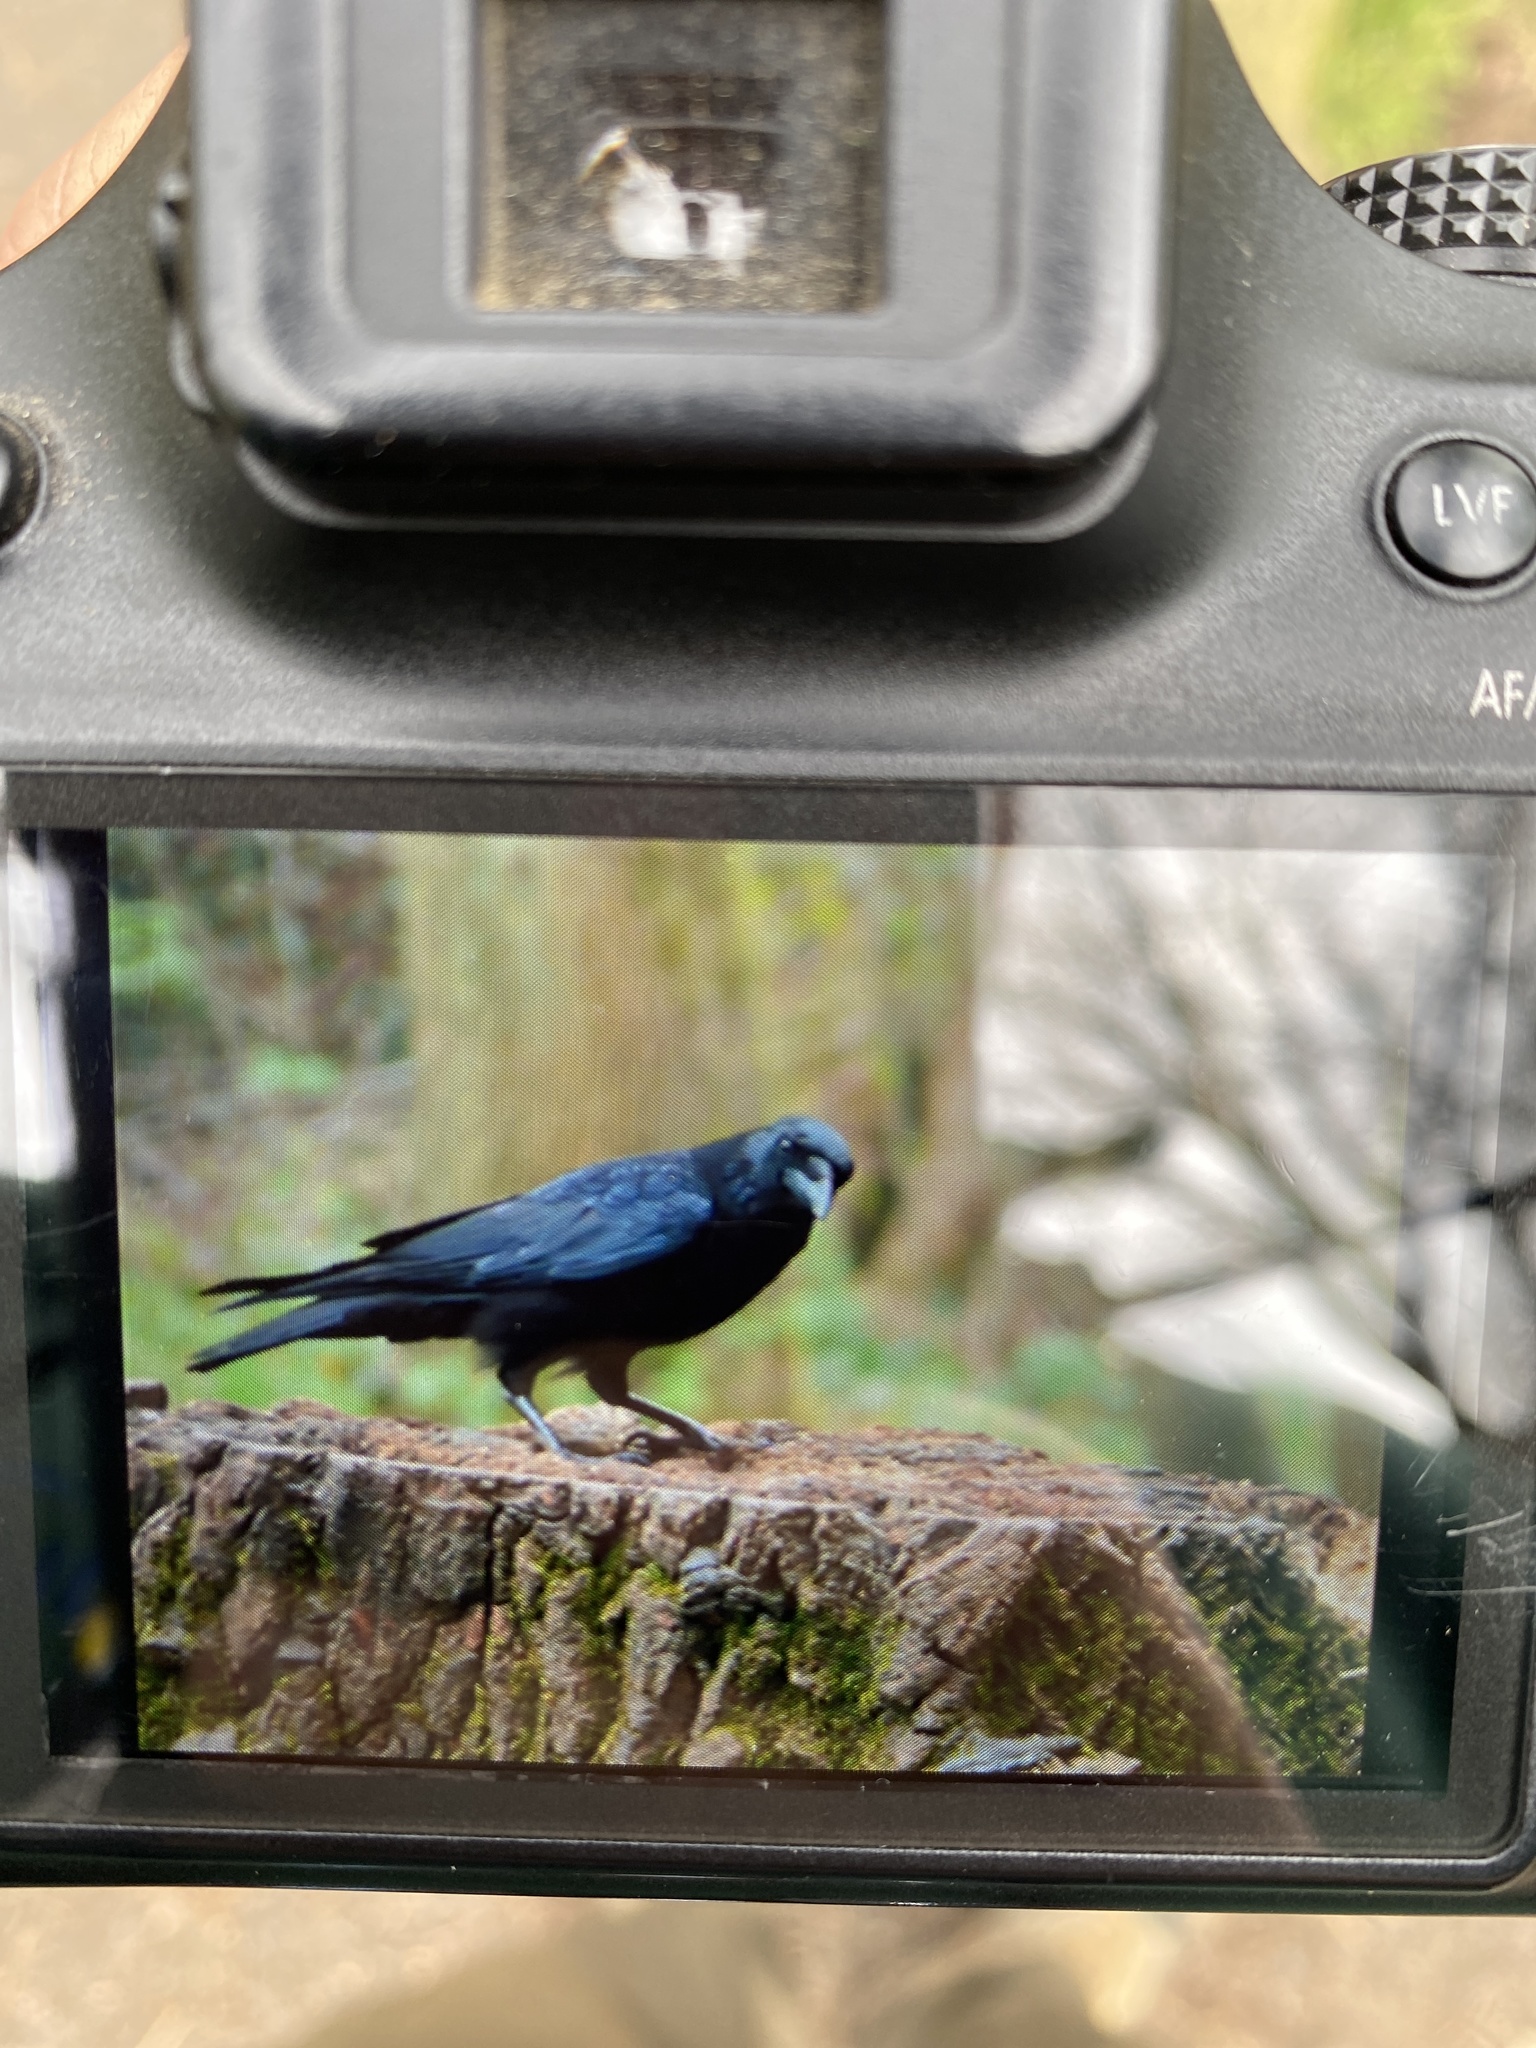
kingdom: Animalia
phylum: Chordata
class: Aves
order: Passeriformes
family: Corvidae
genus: Corvus
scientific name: Corvus corone
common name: Carrion crow
